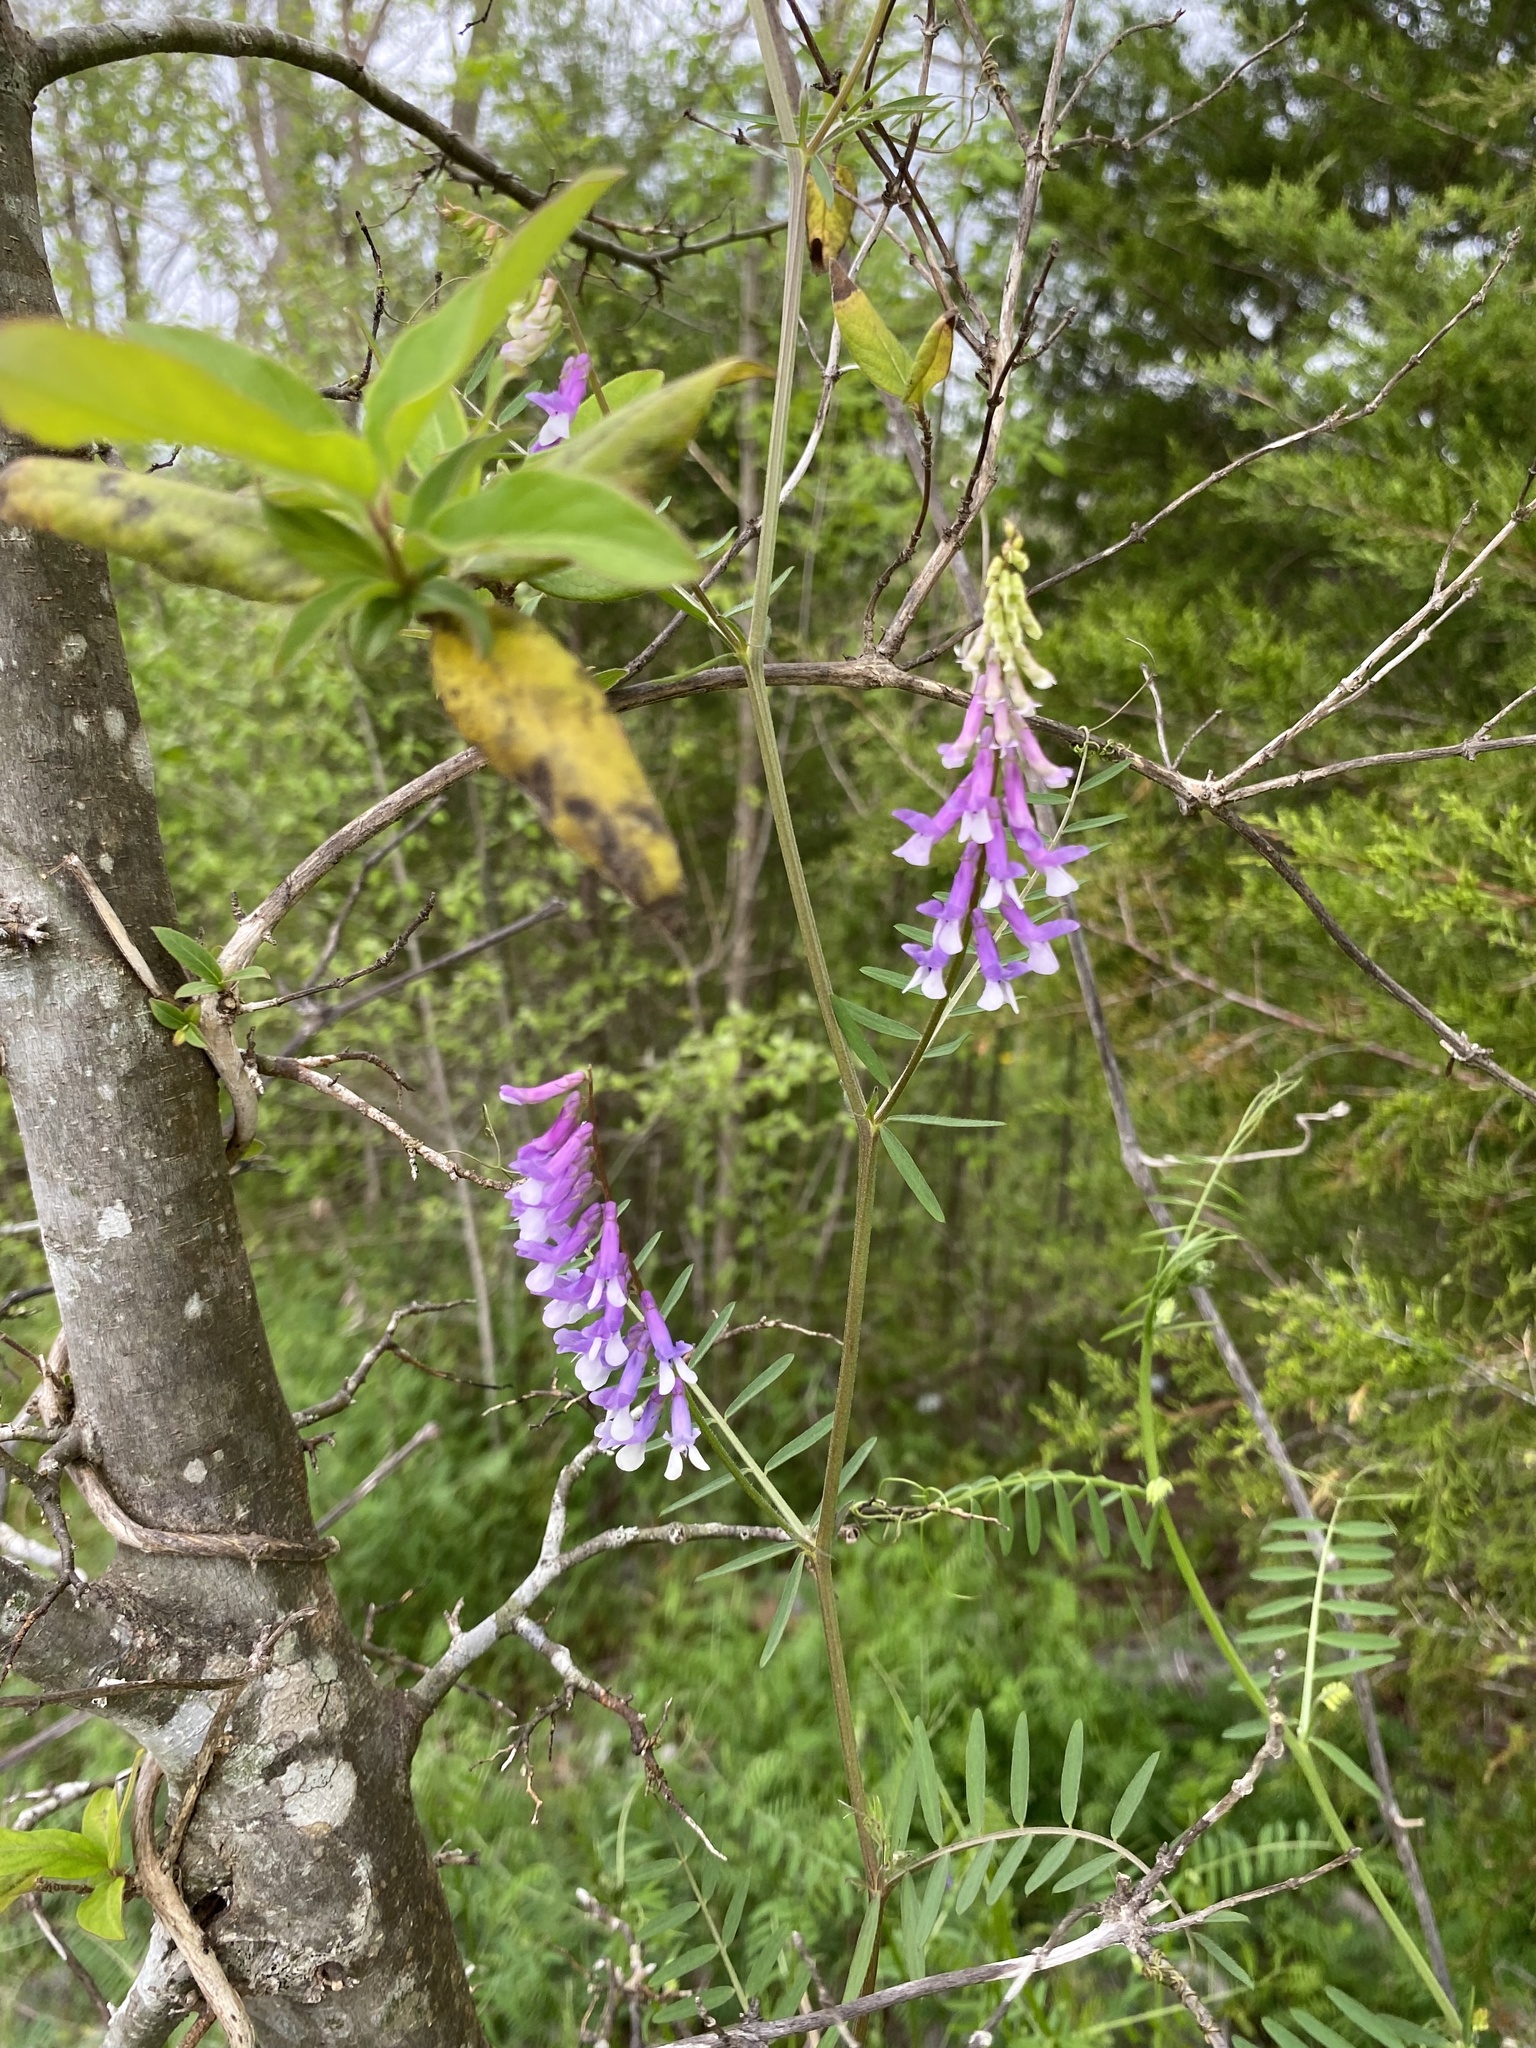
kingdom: Plantae
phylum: Tracheophyta
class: Magnoliopsida
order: Fabales
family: Fabaceae
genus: Vicia
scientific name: Vicia villosa
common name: Fodder vetch
